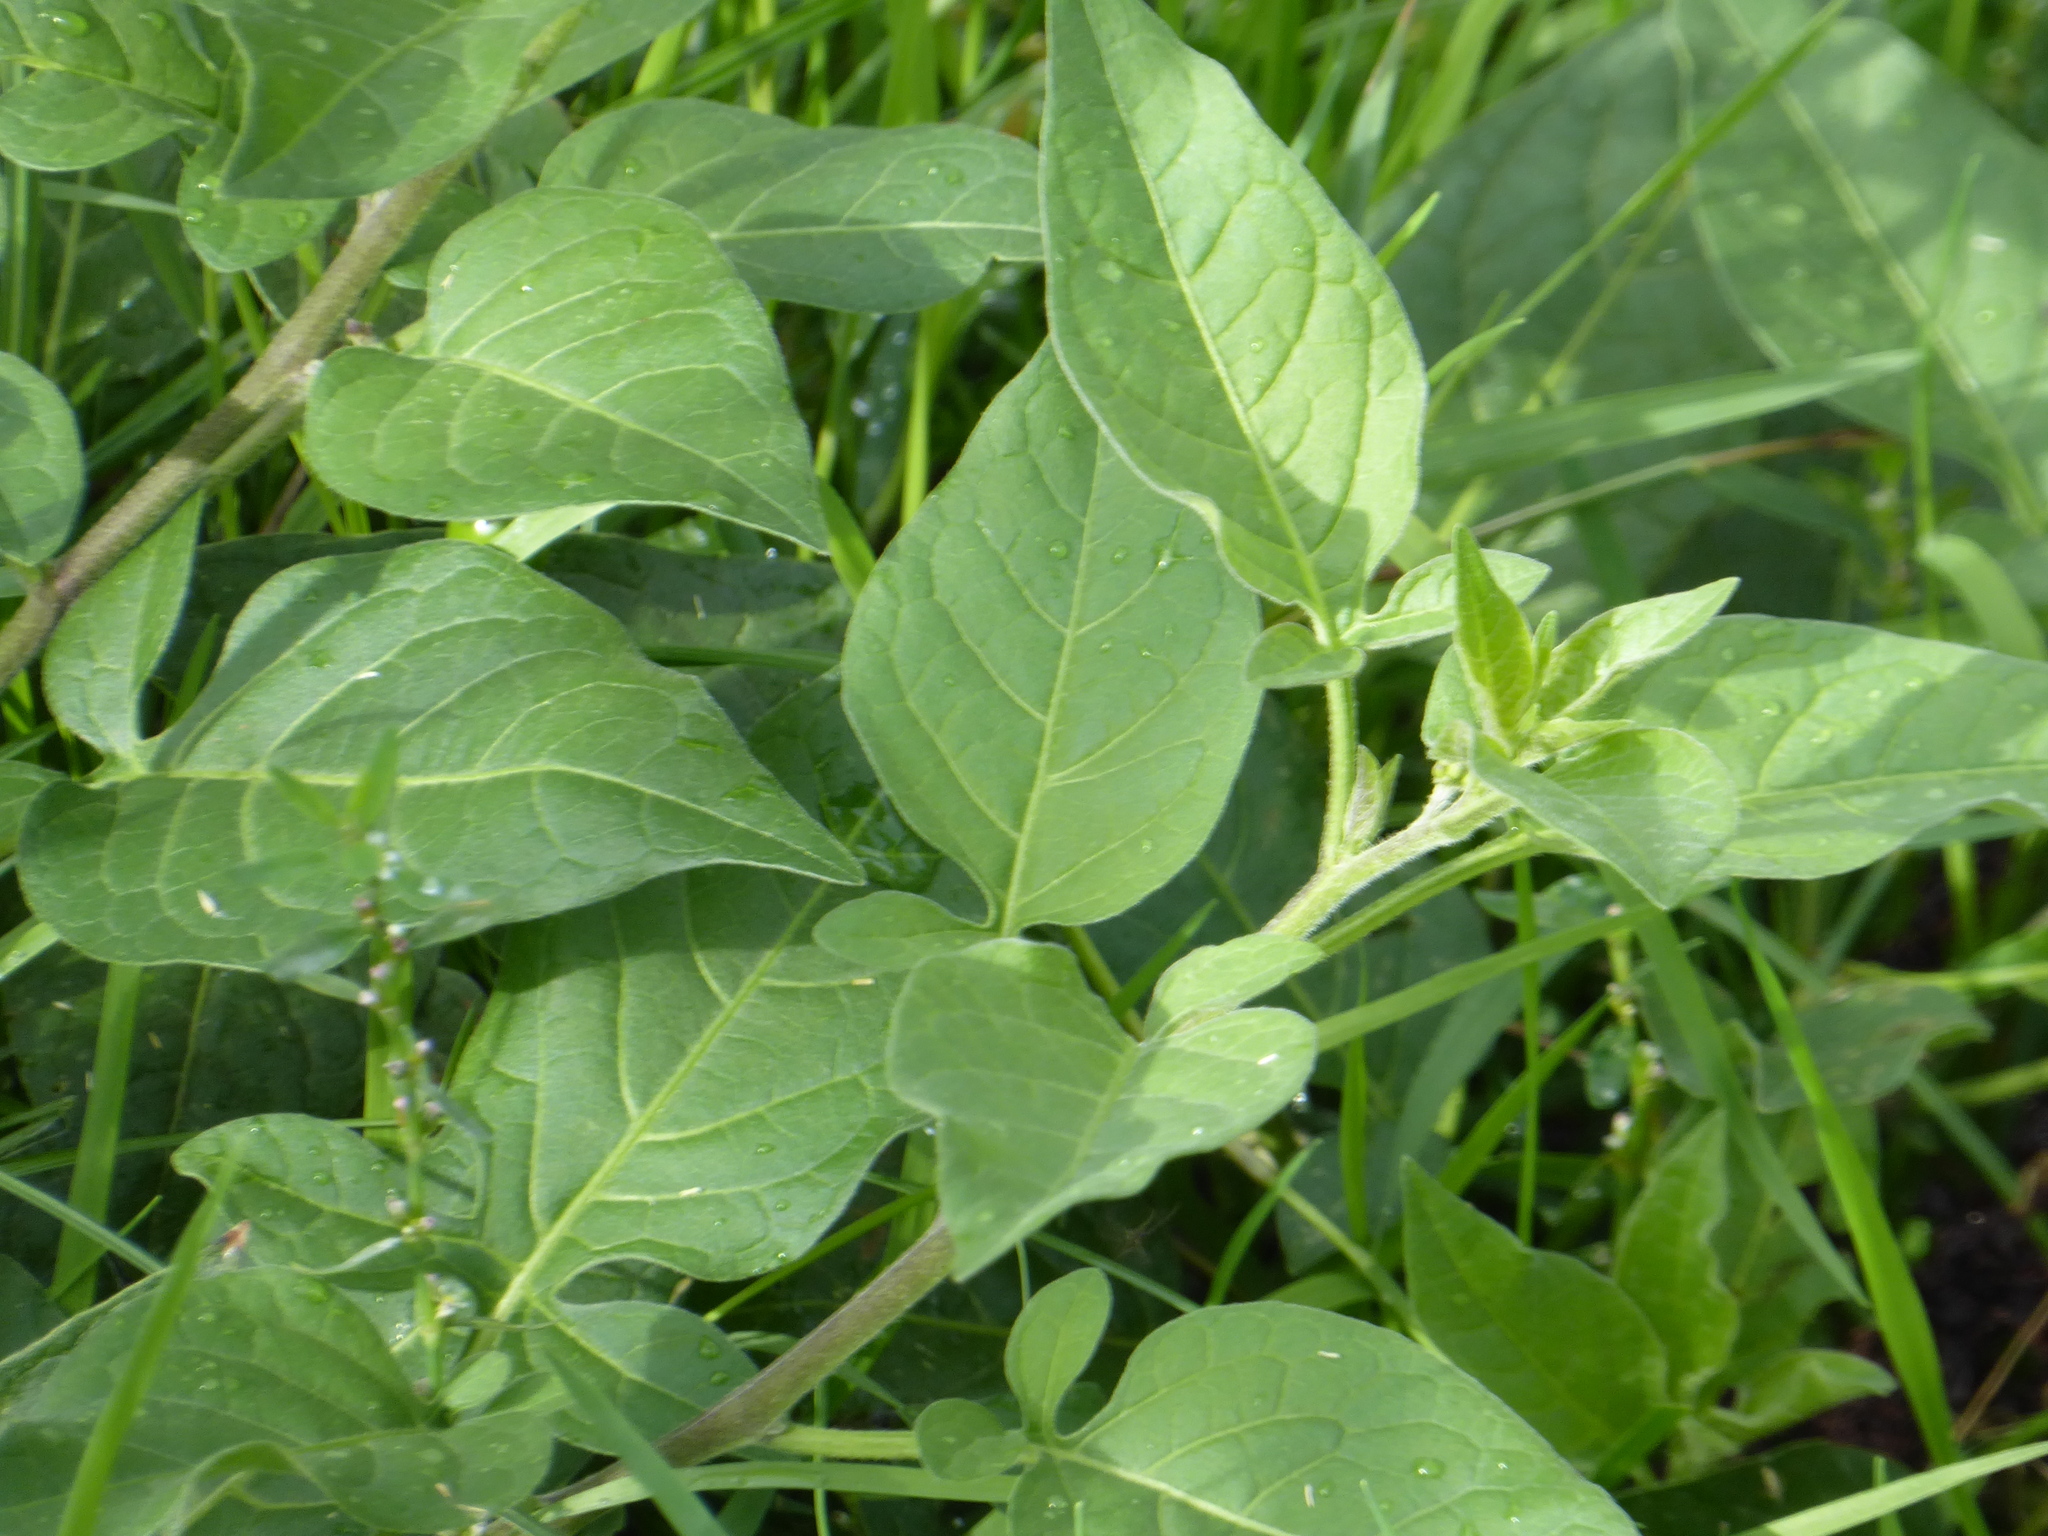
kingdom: Plantae
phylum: Tracheophyta
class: Magnoliopsida
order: Solanales
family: Solanaceae
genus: Solanum
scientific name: Solanum dulcamara
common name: Climbing nightshade
